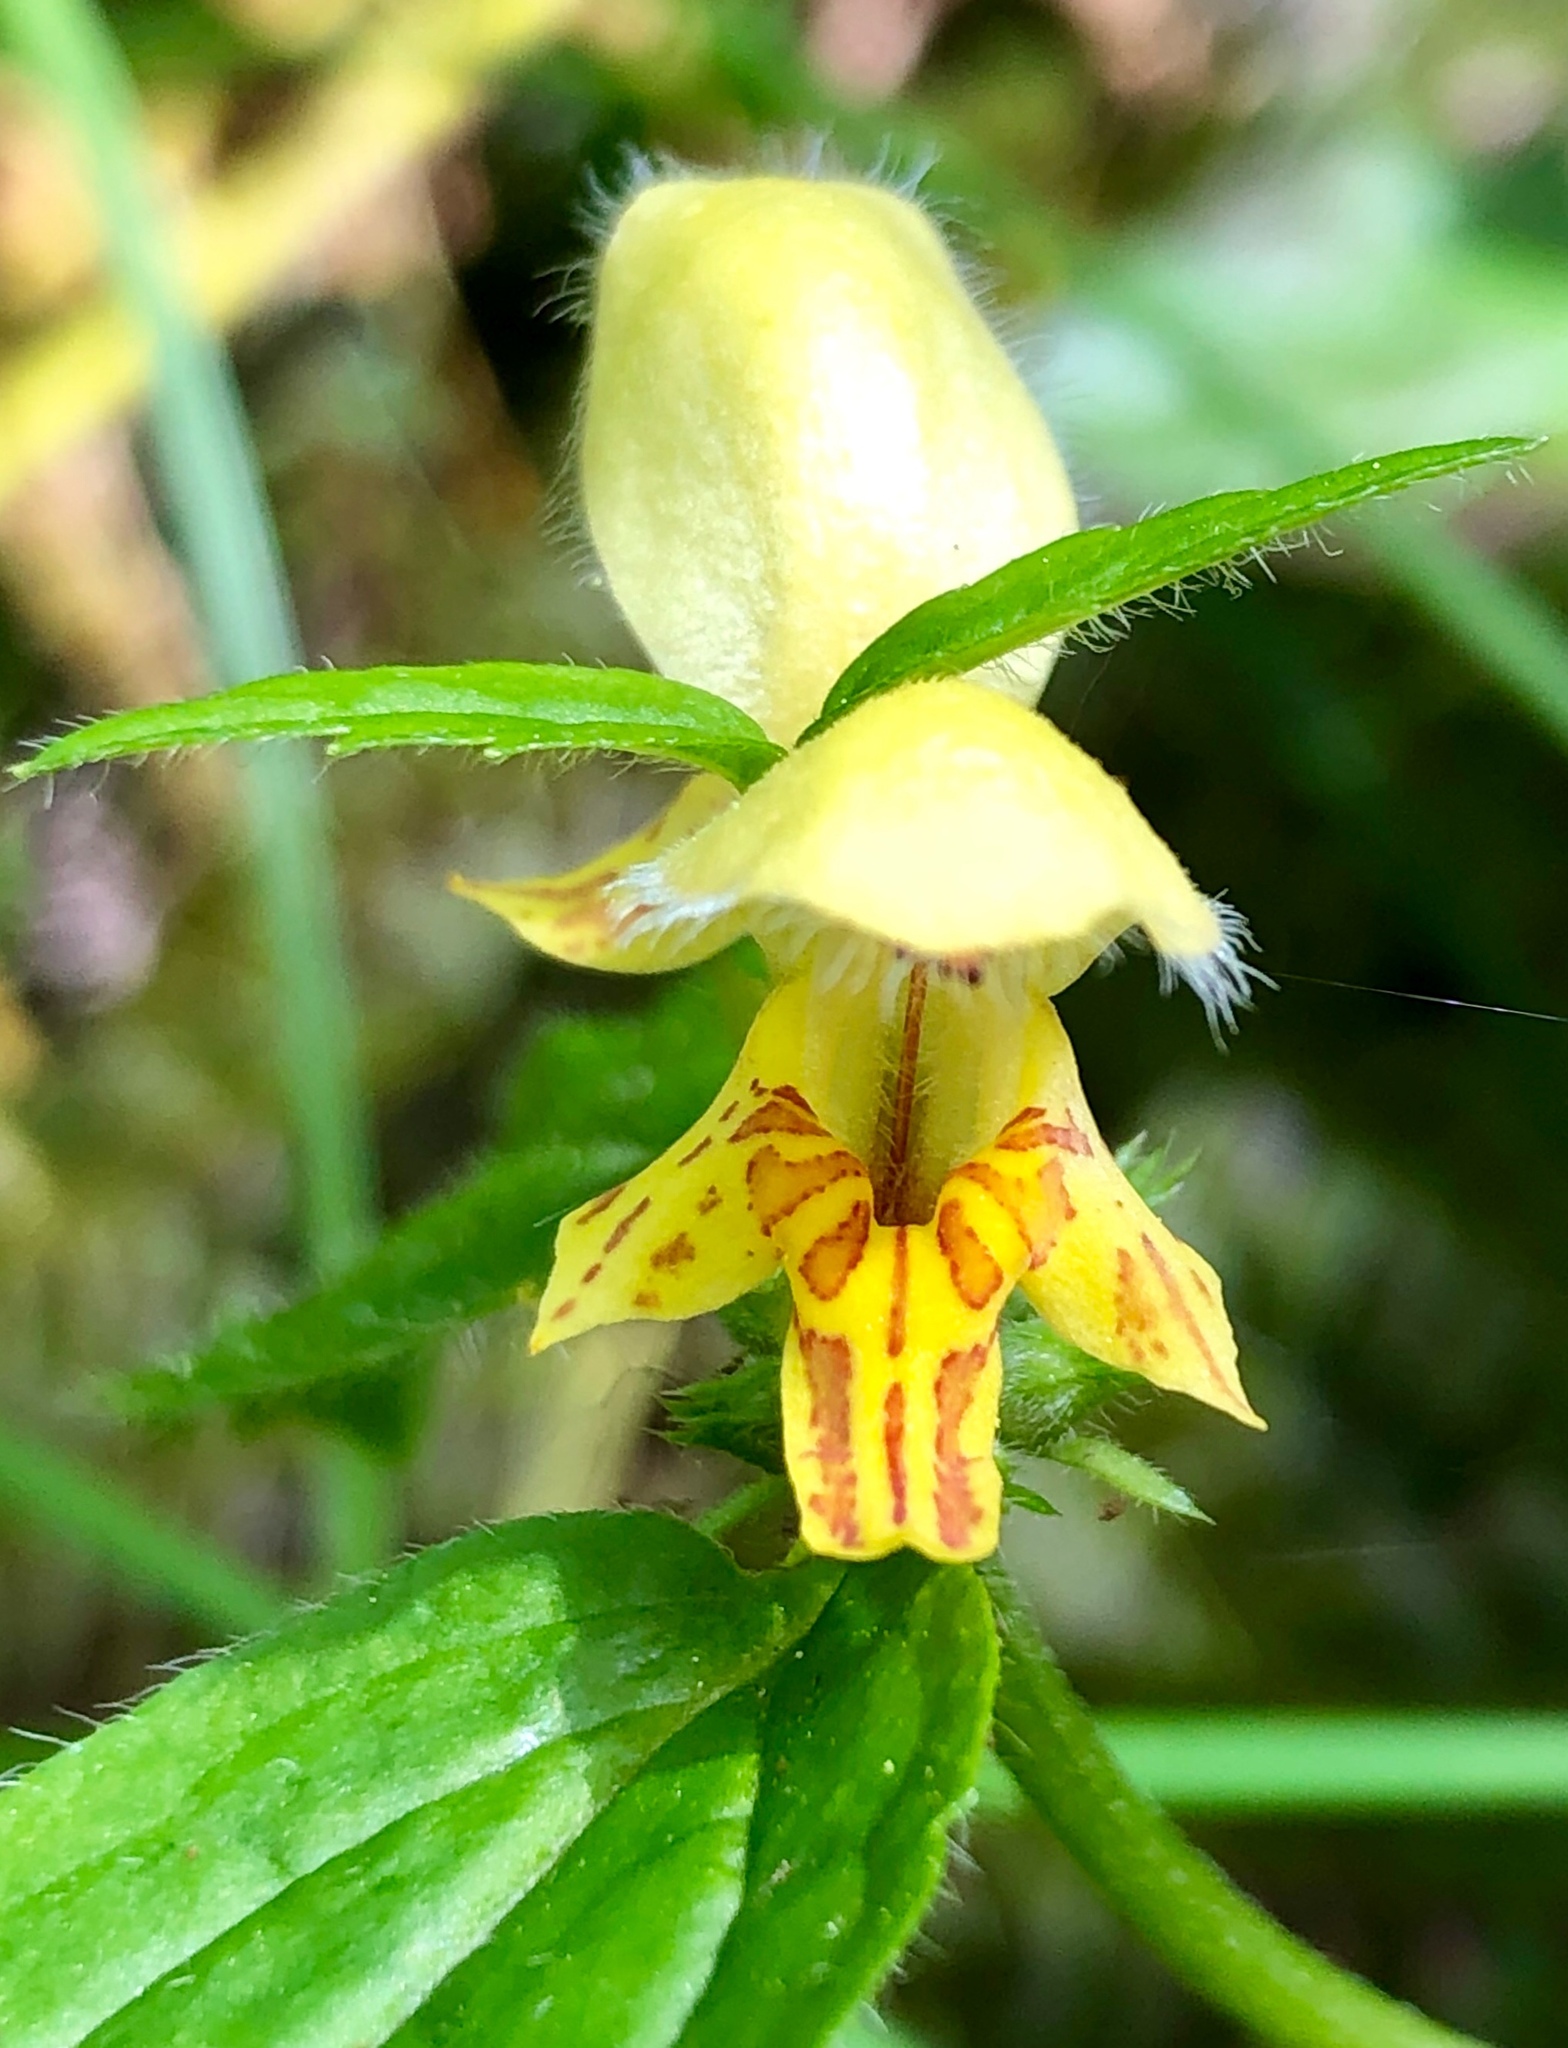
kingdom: Plantae
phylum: Tracheophyta
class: Magnoliopsida
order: Lamiales
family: Lamiaceae
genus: Lamium
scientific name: Lamium galeobdolon
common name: Yellow archangel
